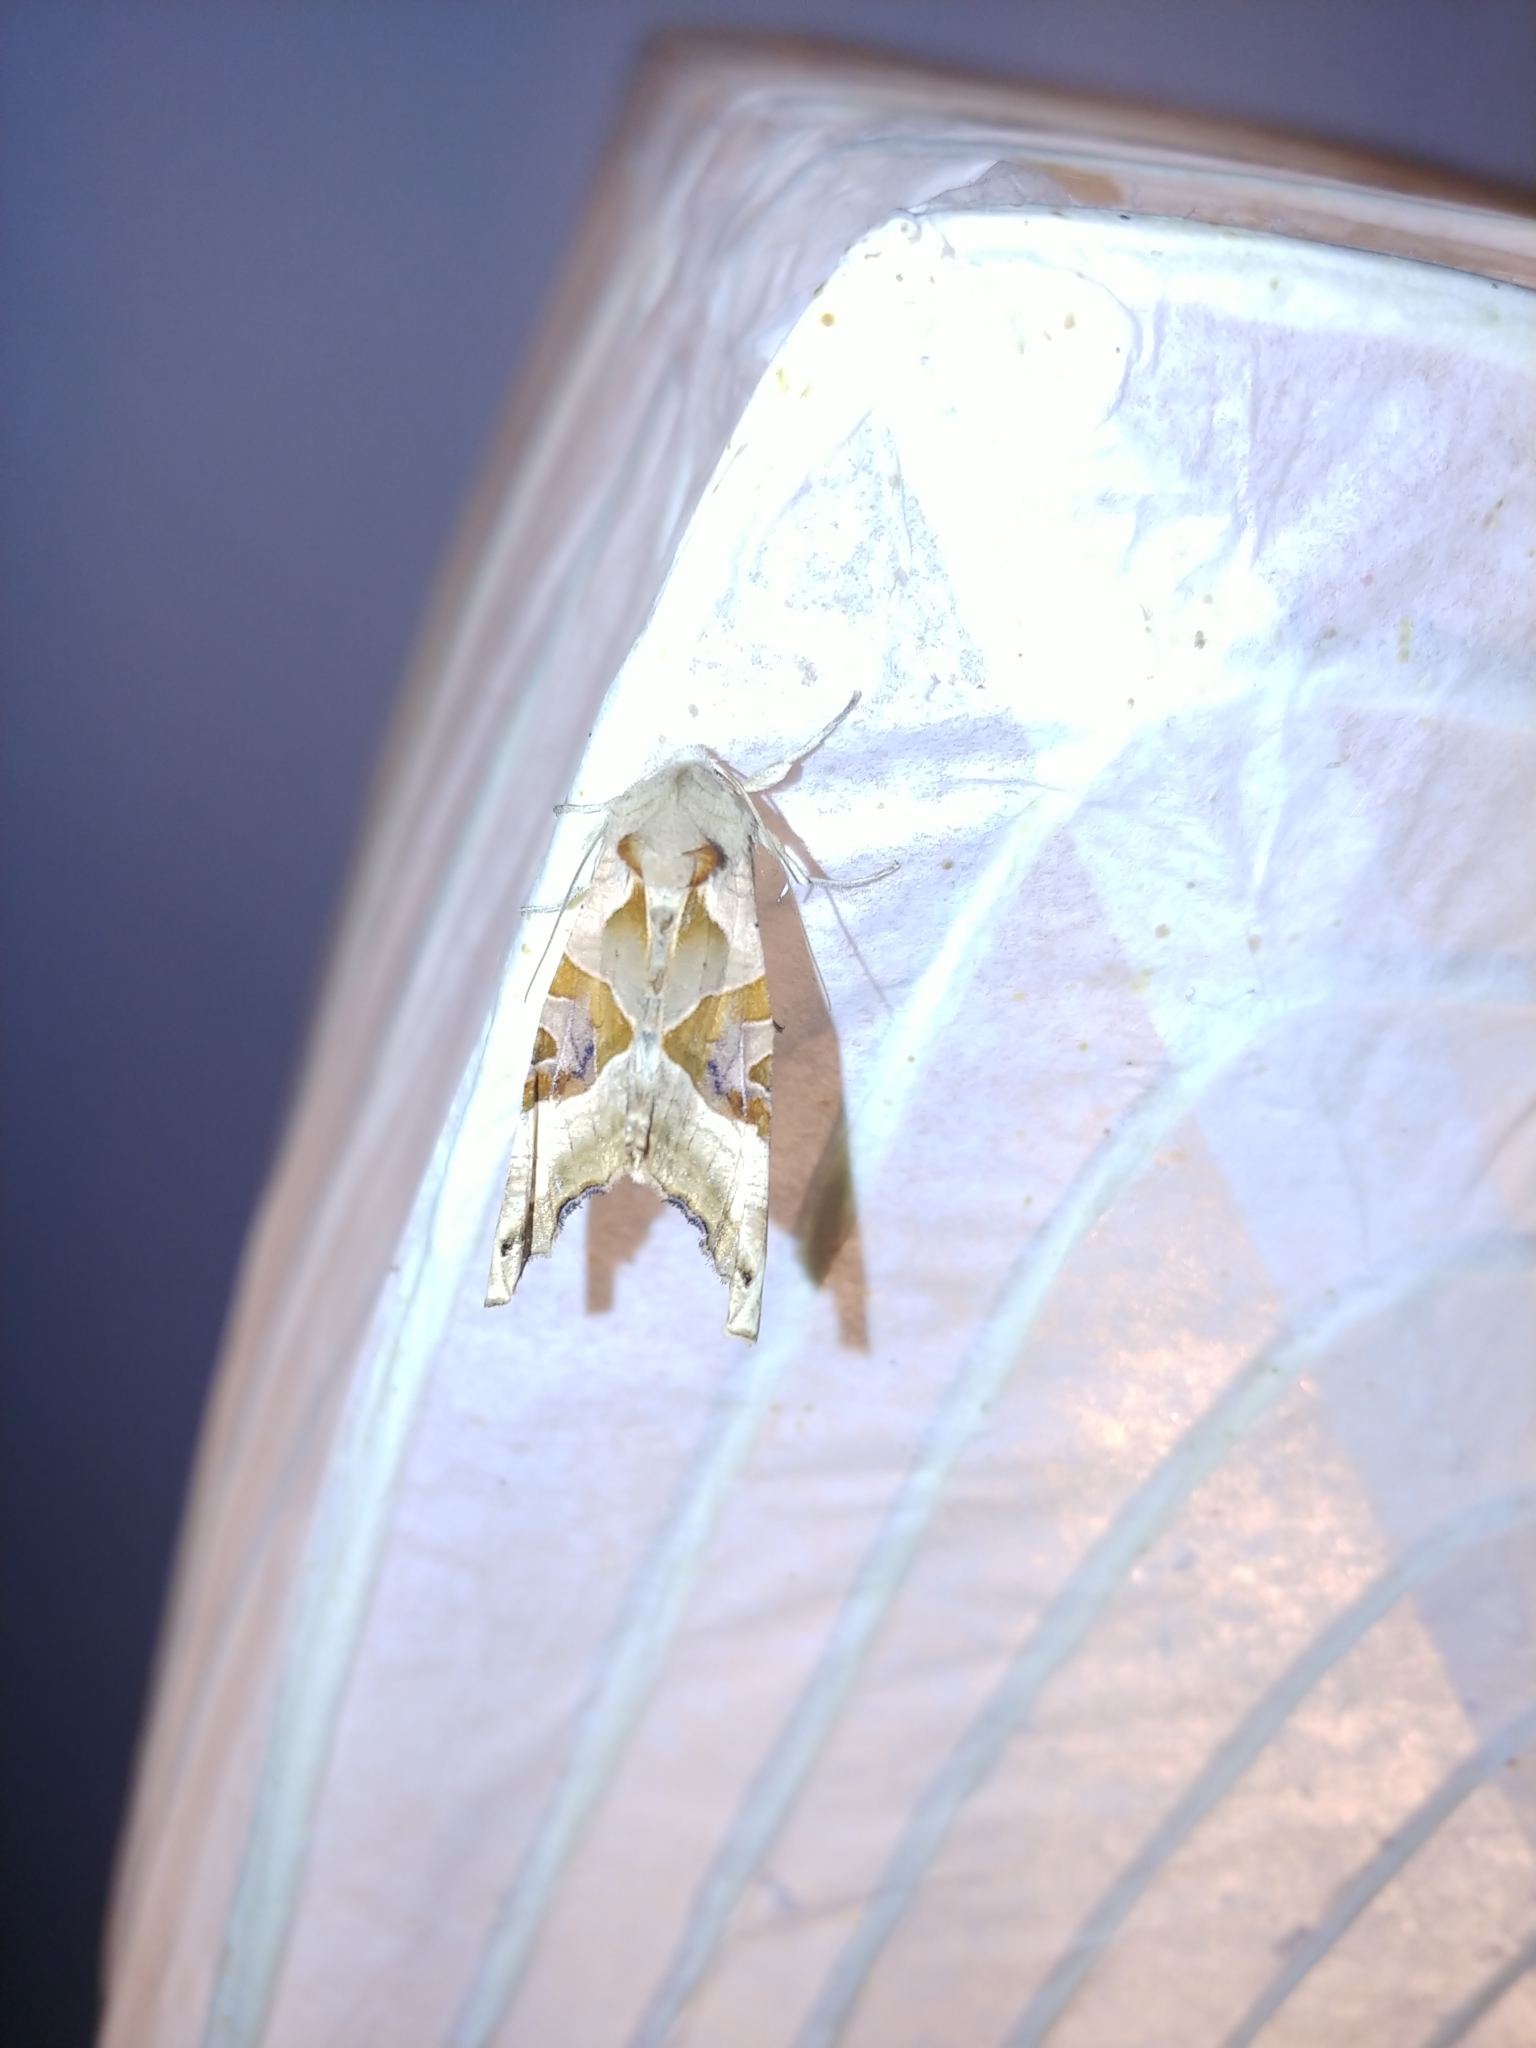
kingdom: Animalia
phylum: Arthropoda
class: Insecta
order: Lepidoptera
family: Noctuidae
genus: Phlogophora
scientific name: Phlogophora meticulosa
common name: Angle shades
